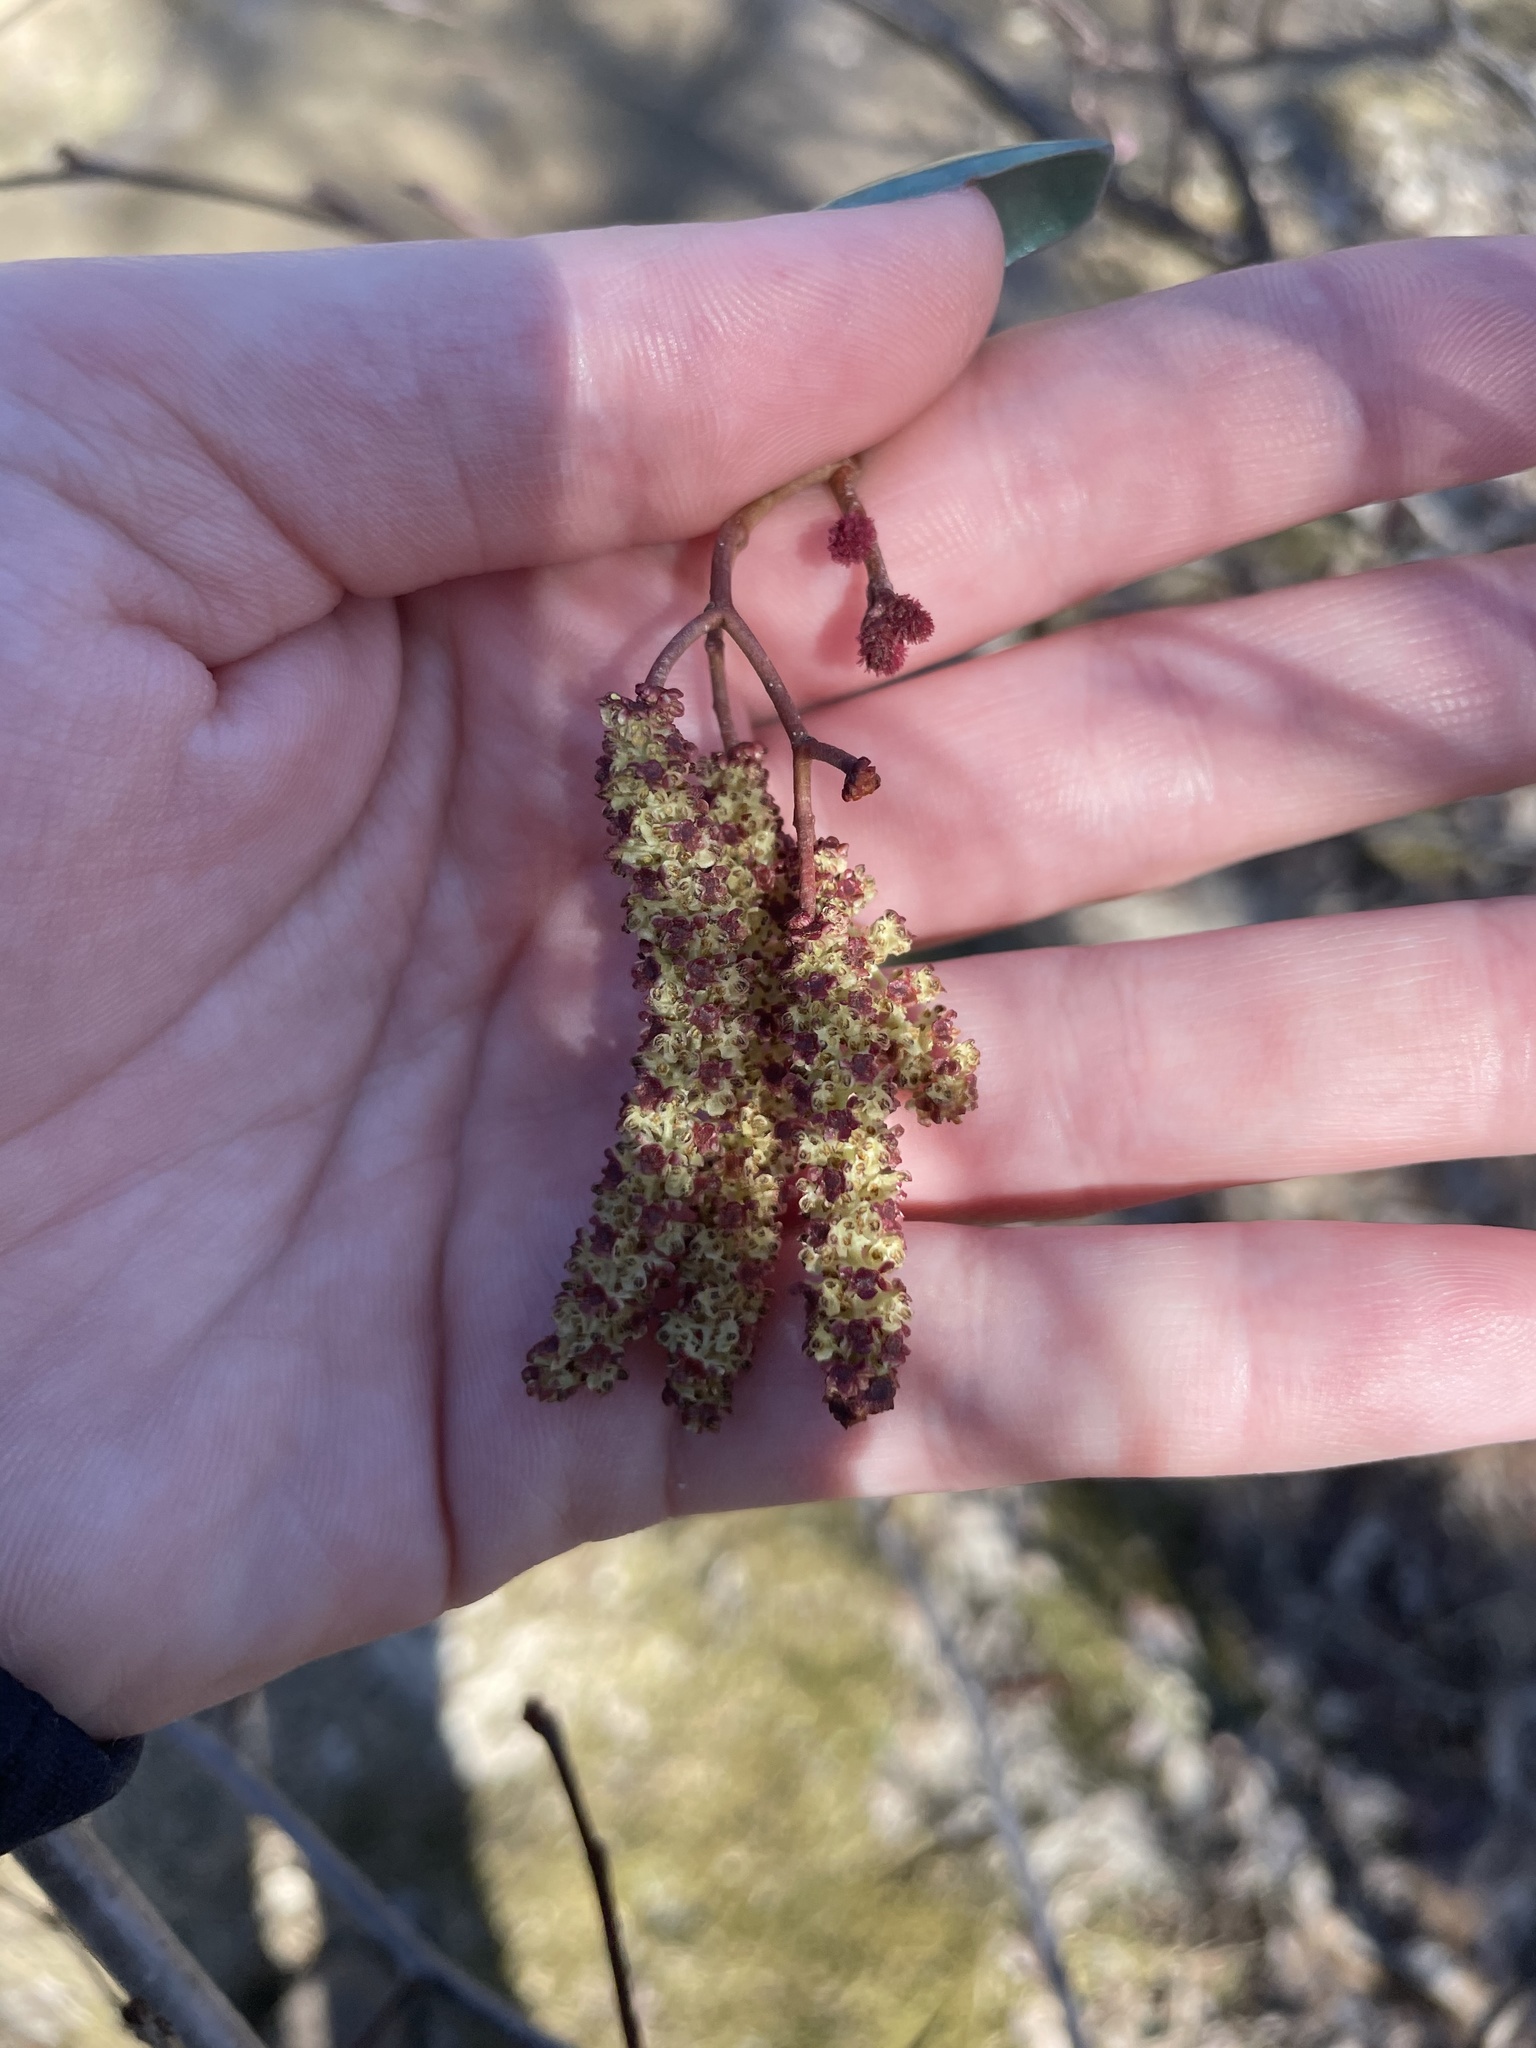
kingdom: Plantae
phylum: Tracheophyta
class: Magnoliopsida
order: Fagales
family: Betulaceae
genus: Alnus
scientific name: Alnus incana
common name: Grey alder
